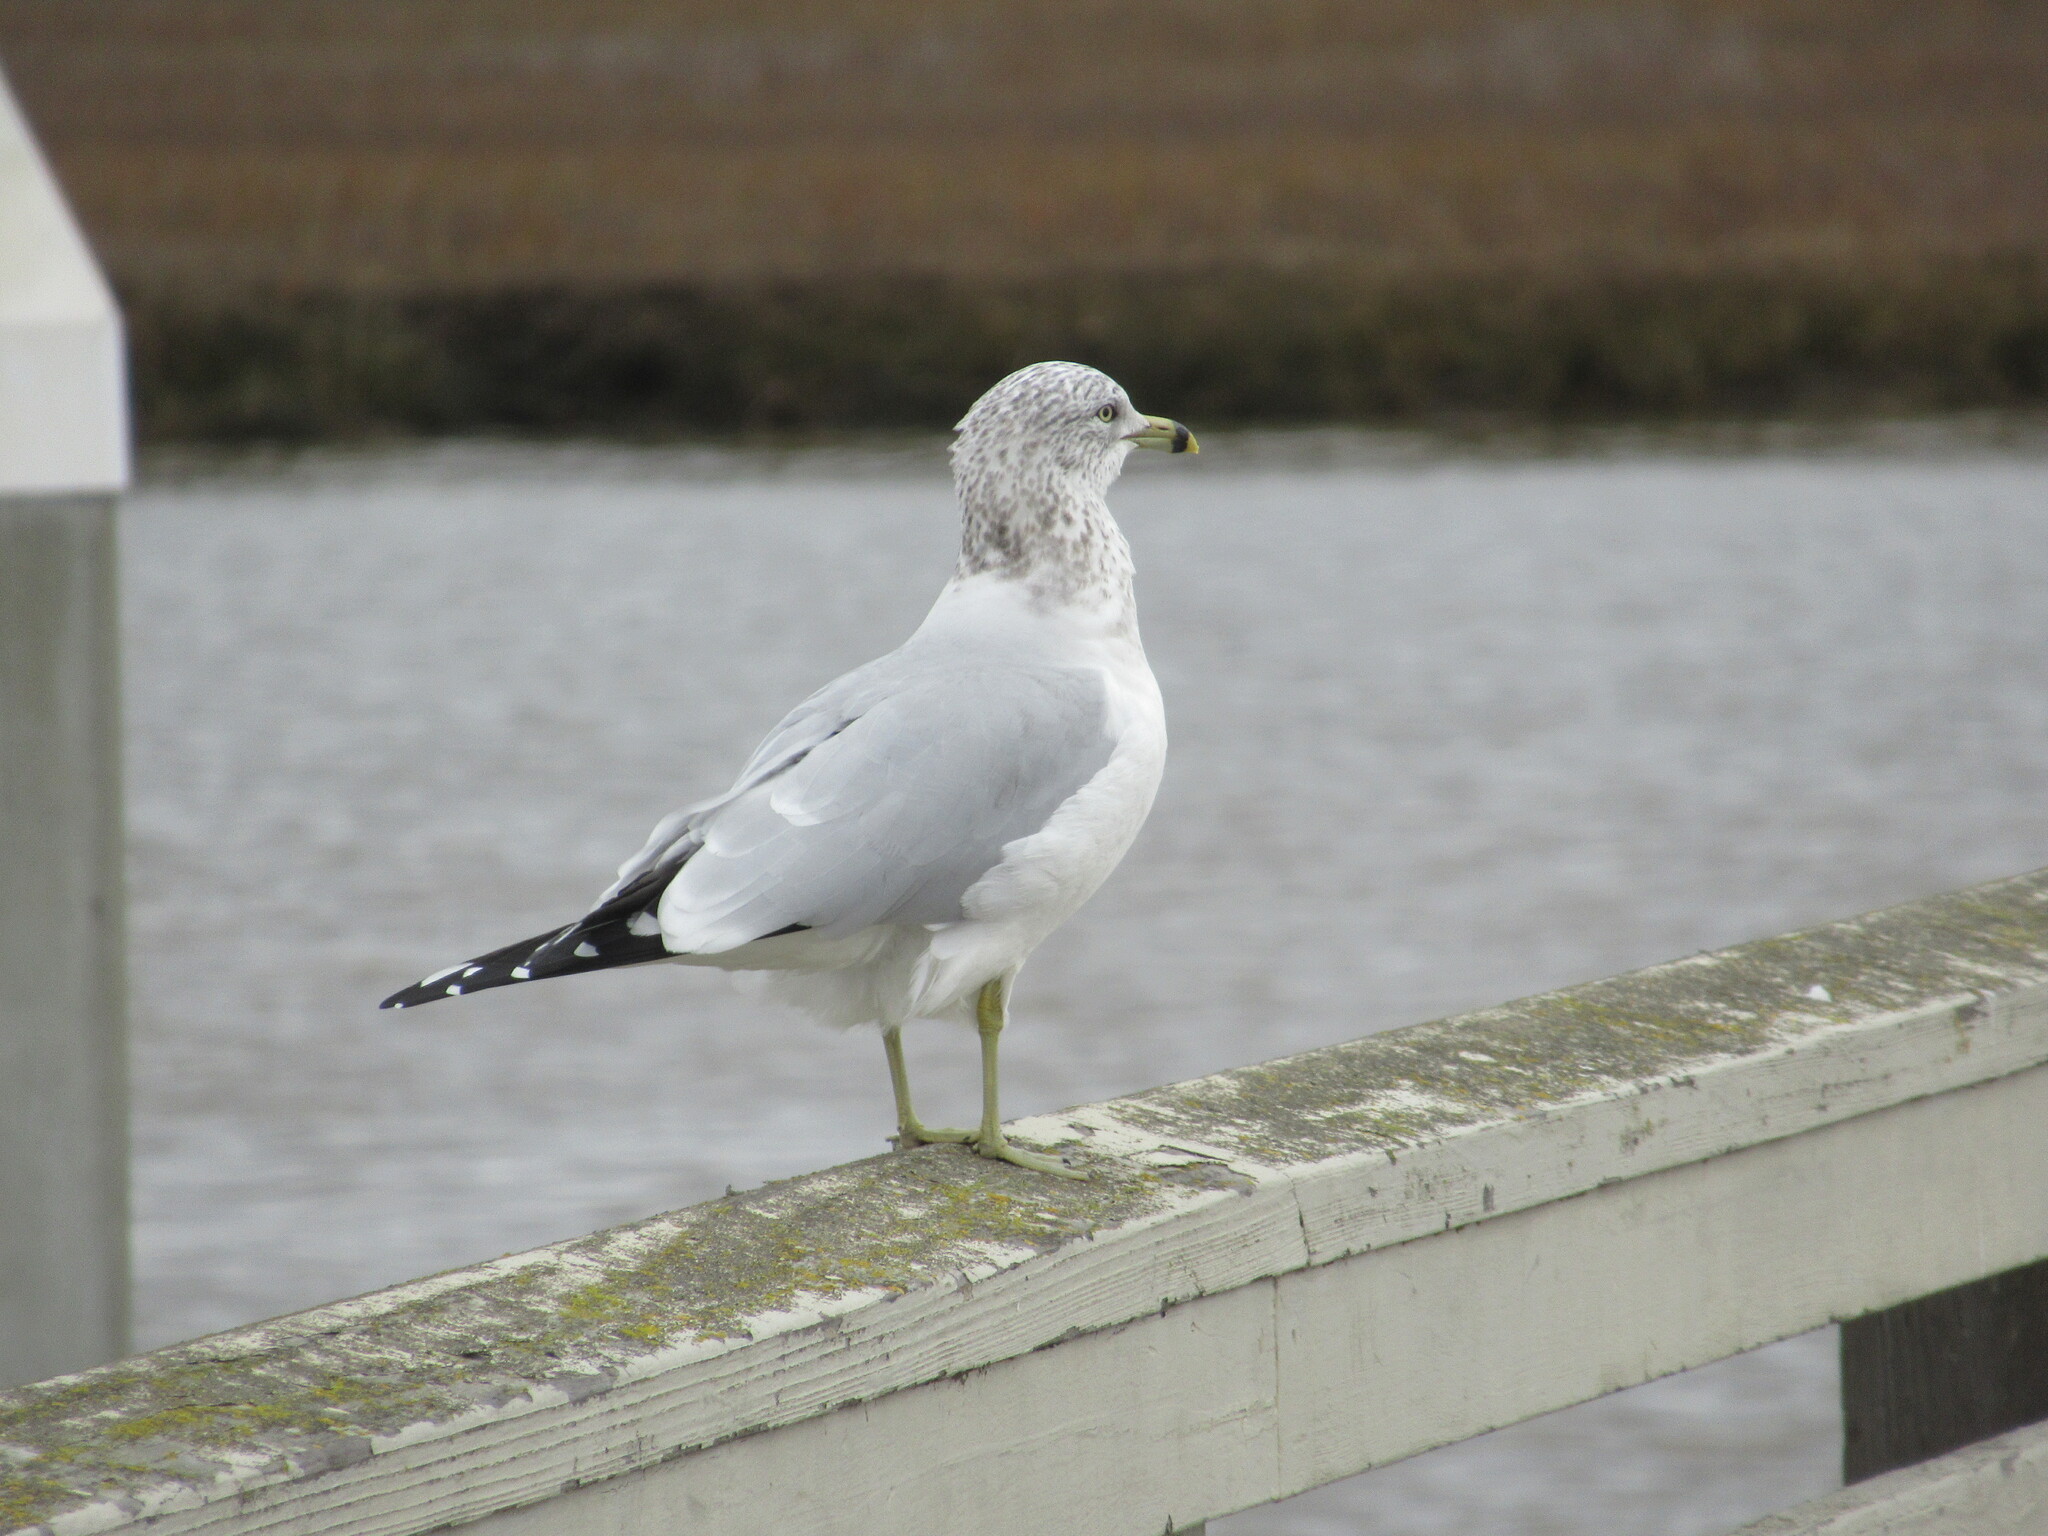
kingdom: Animalia
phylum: Chordata
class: Aves
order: Charadriiformes
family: Laridae
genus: Larus
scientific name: Larus delawarensis
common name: Ring-billed gull
